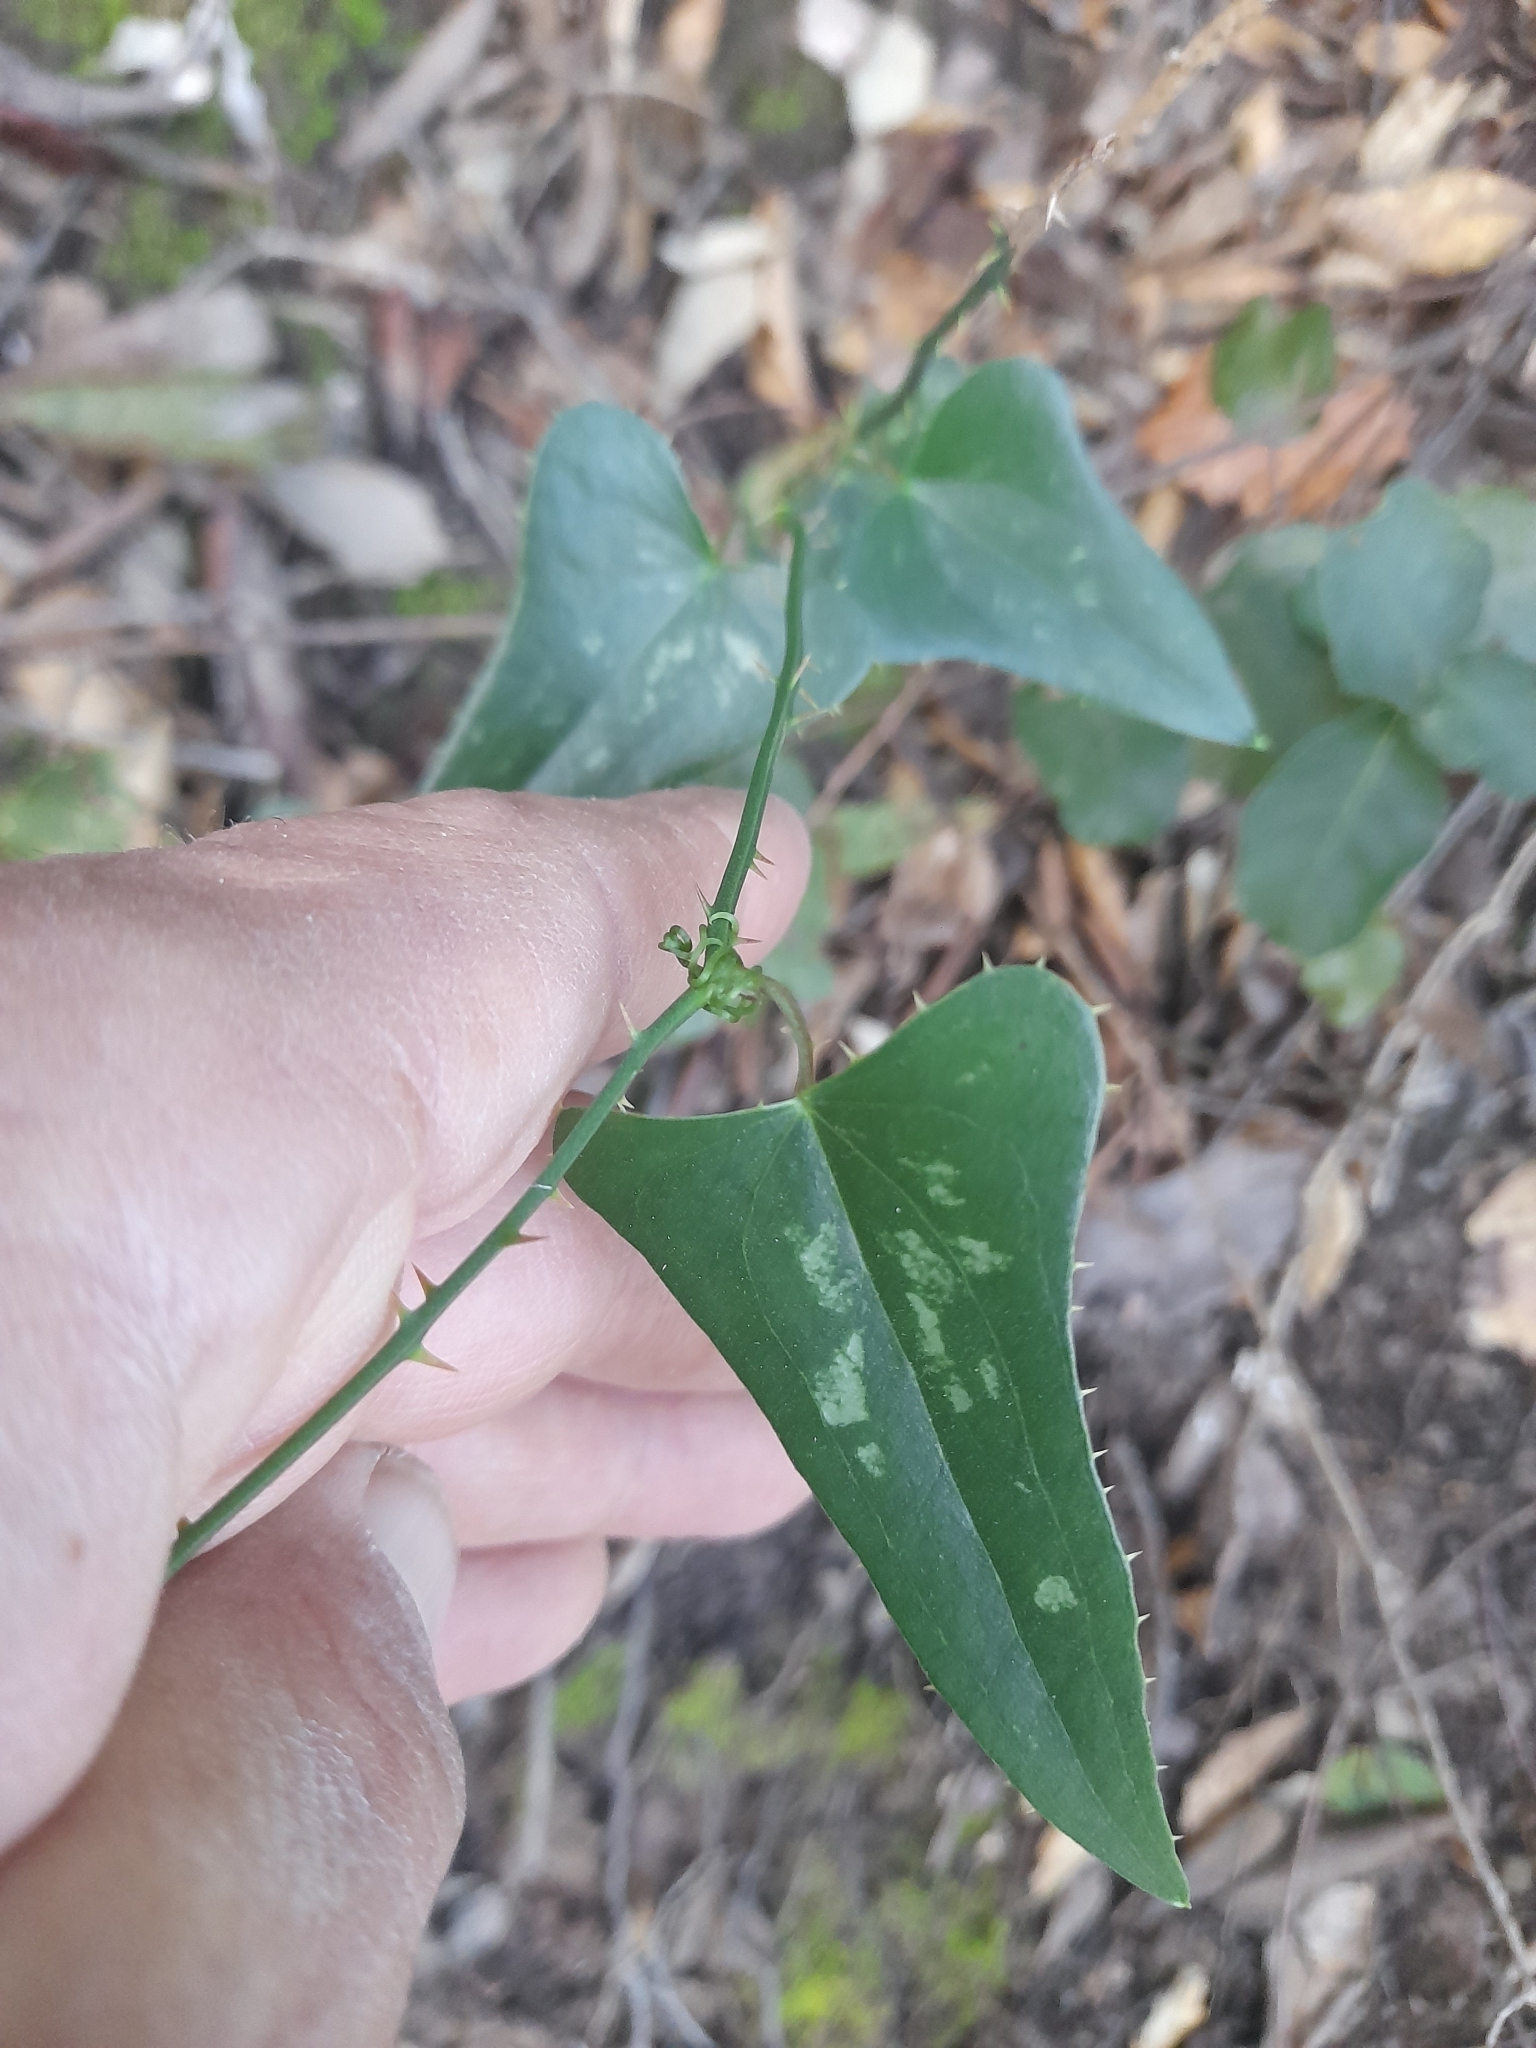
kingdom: Plantae
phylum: Tracheophyta
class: Liliopsida
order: Liliales
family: Smilacaceae
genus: Smilax
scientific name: Smilax aspera
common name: Common smilax
